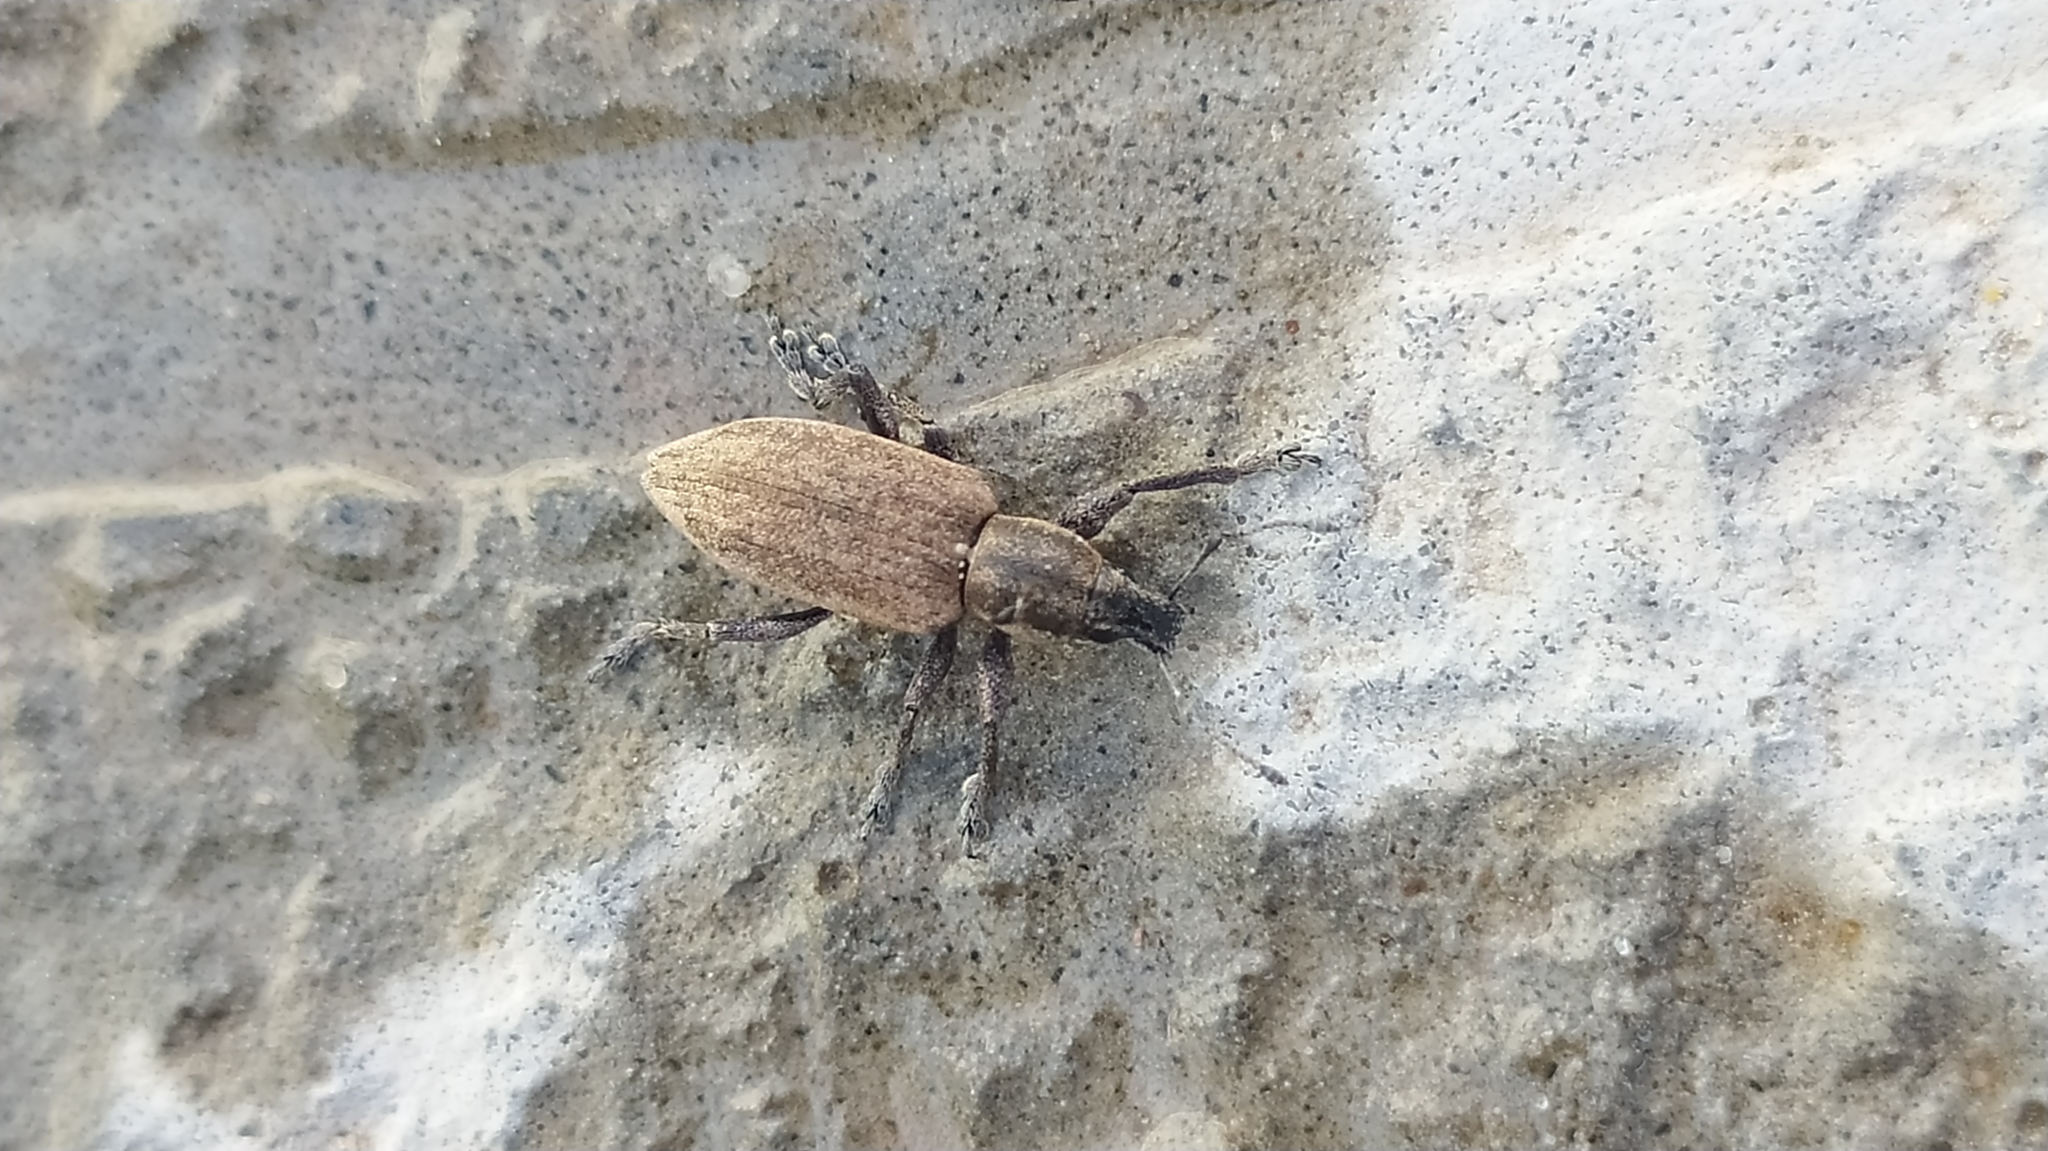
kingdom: Animalia
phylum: Arthropoda
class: Insecta
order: Coleoptera
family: Curculionidae
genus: Tanymecus
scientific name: Tanymecus palliatus
